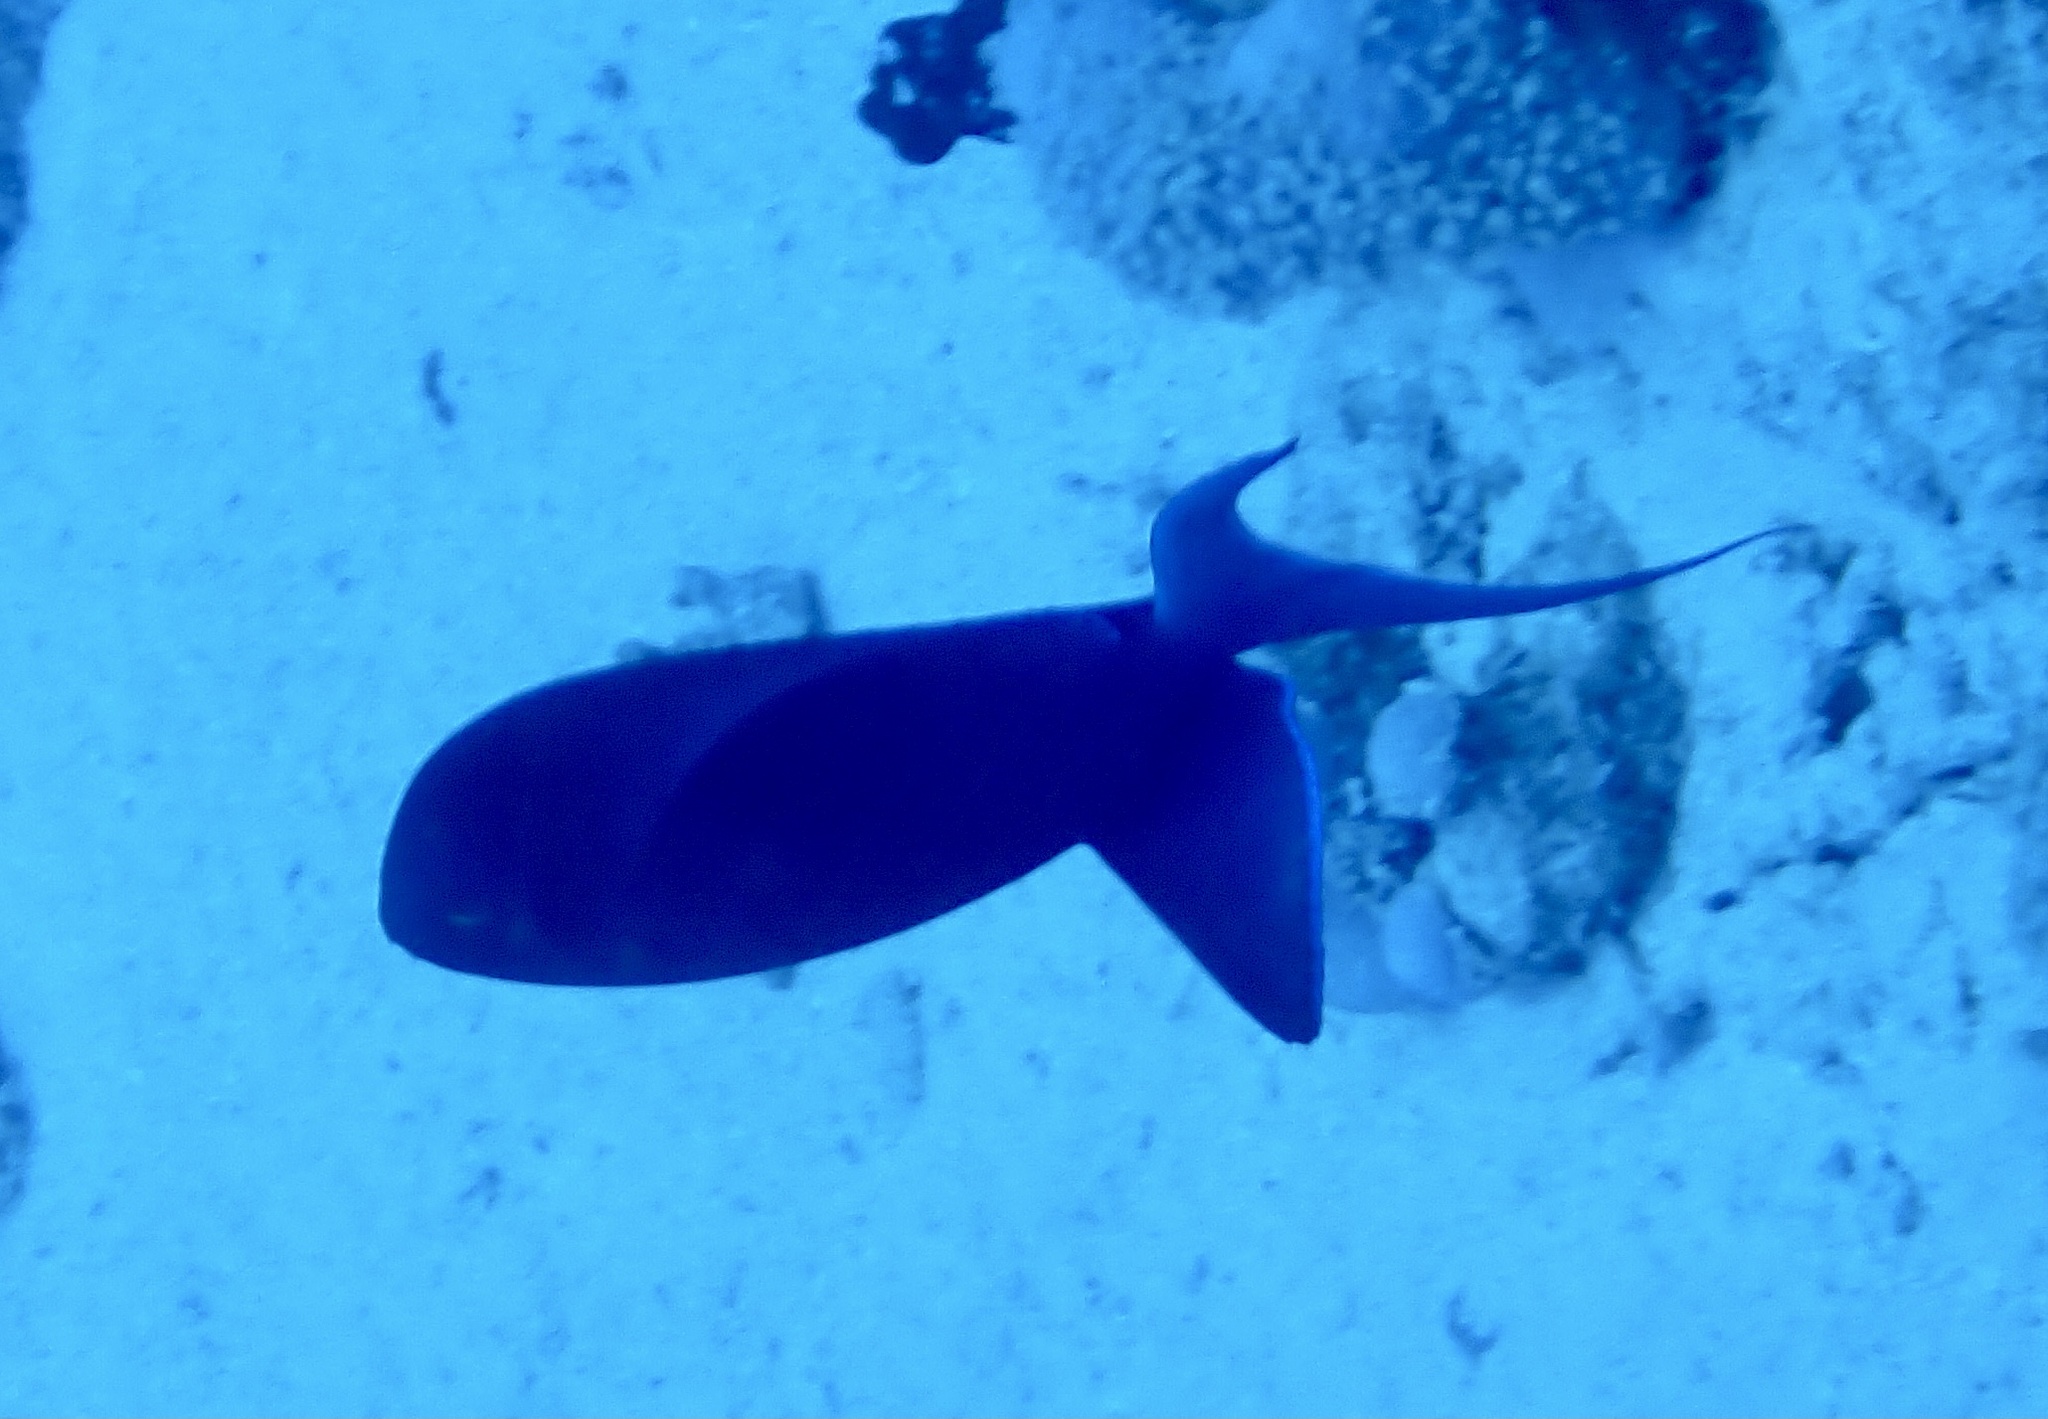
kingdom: Animalia
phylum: Chordata
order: Tetraodontiformes
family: Balistidae
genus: Odonus
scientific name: Odonus niger
